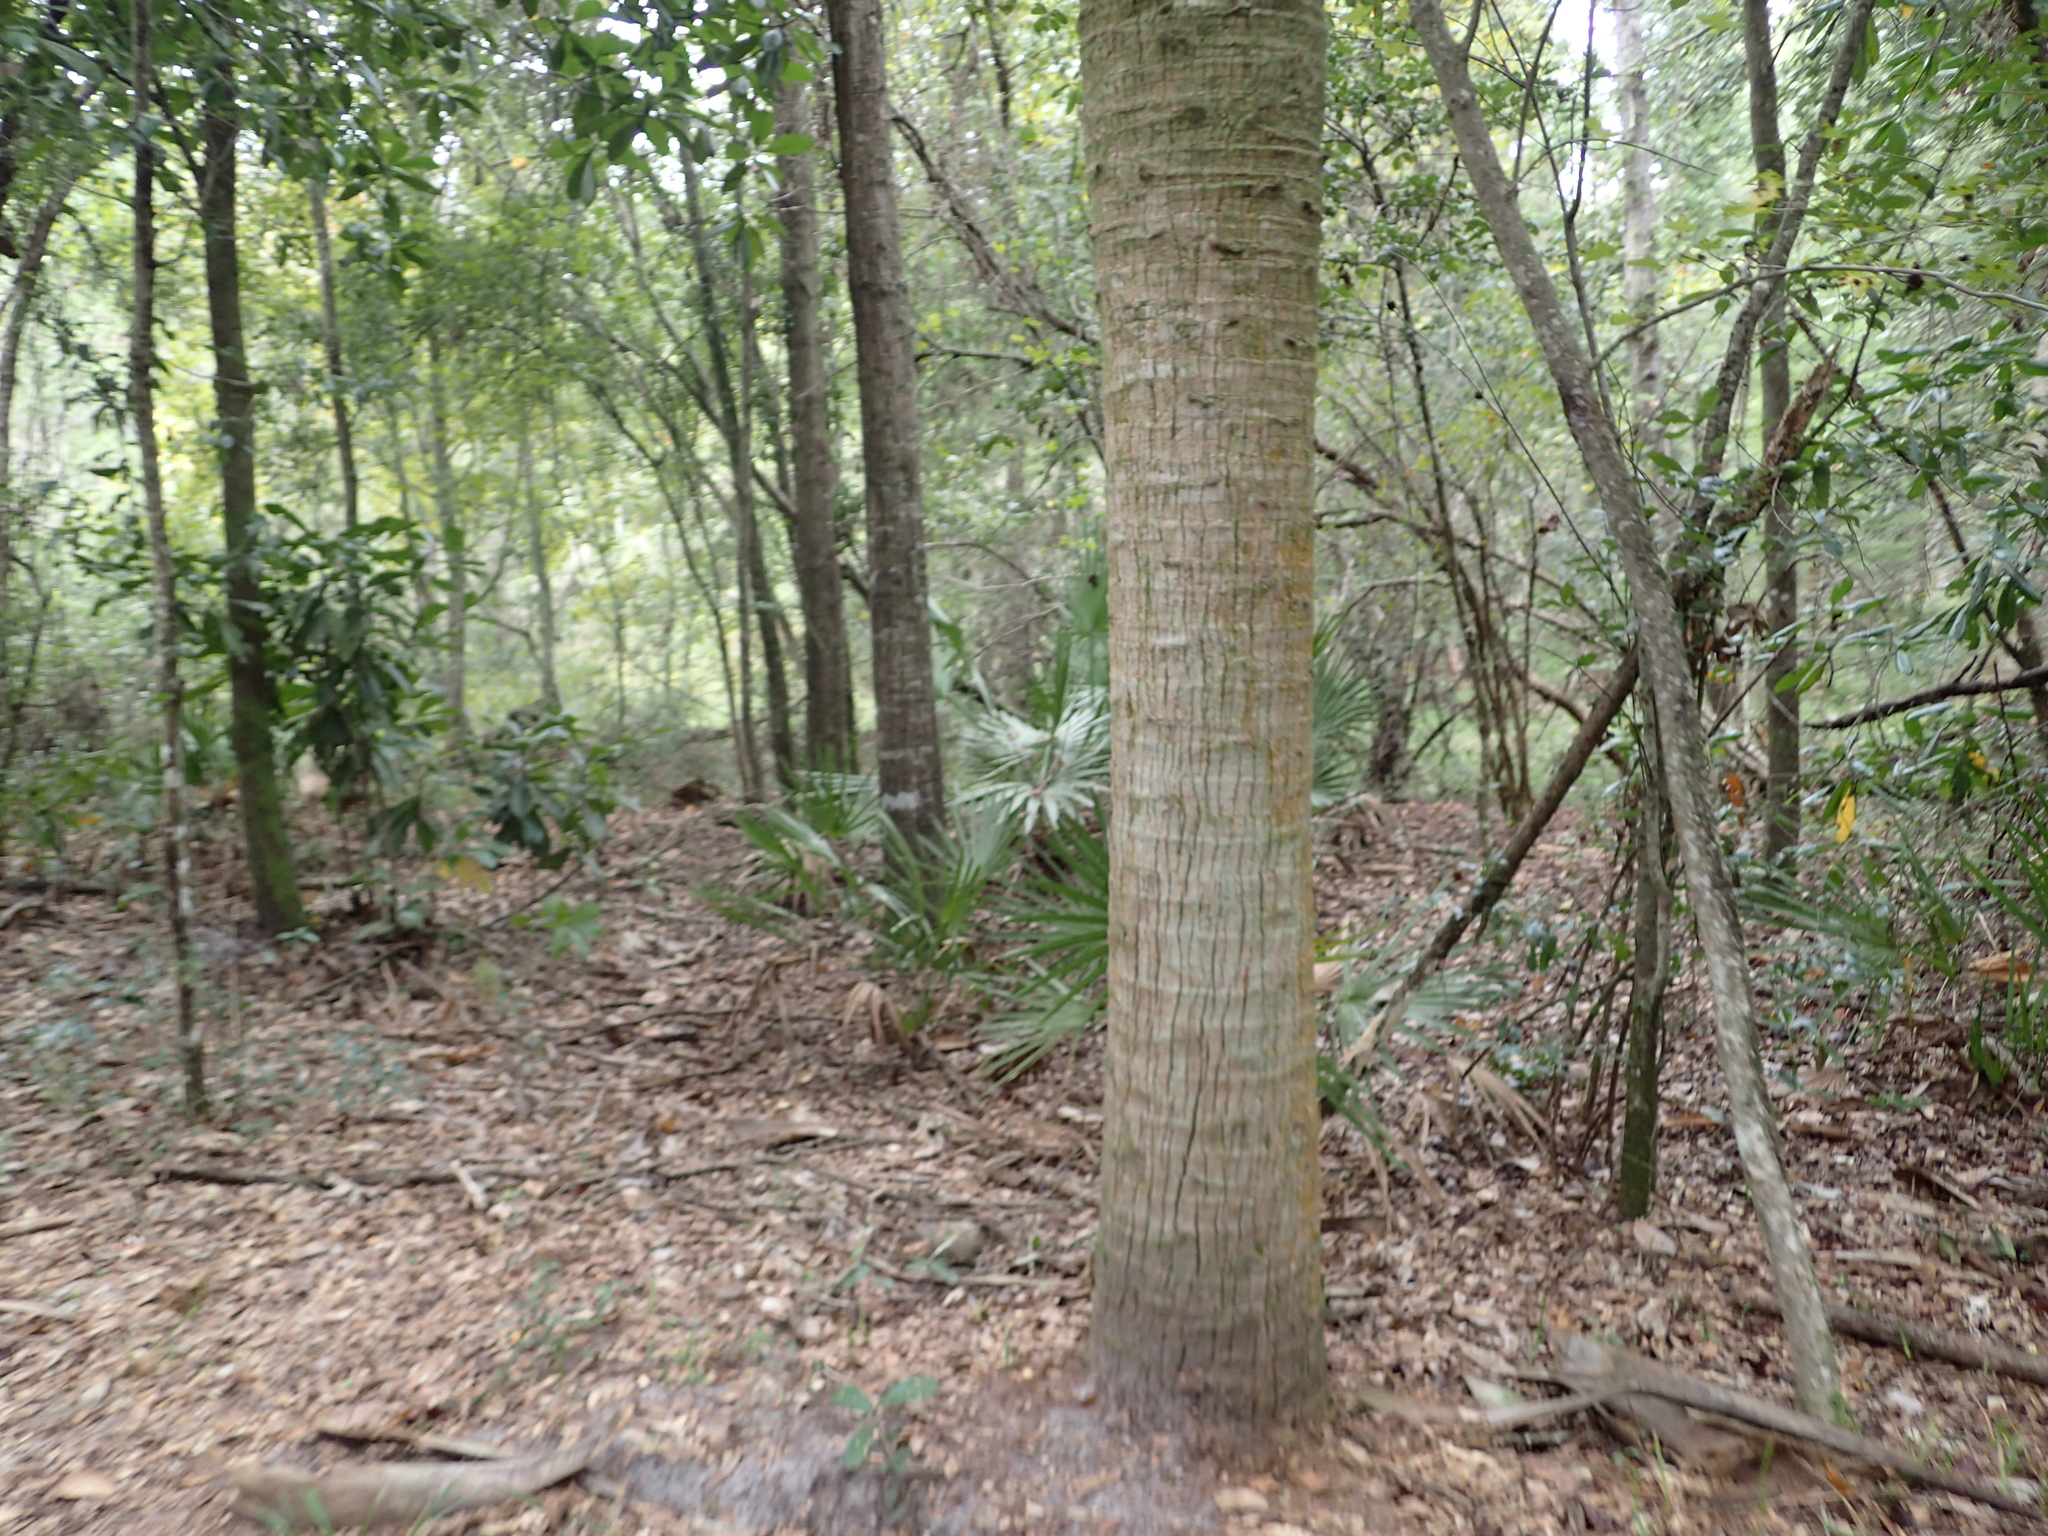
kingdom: Plantae
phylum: Tracheophyta
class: Liliopsida
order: Arecales
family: Arecaceae
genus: Serenoa
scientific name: Serenoa repens
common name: Saw-palmetto
